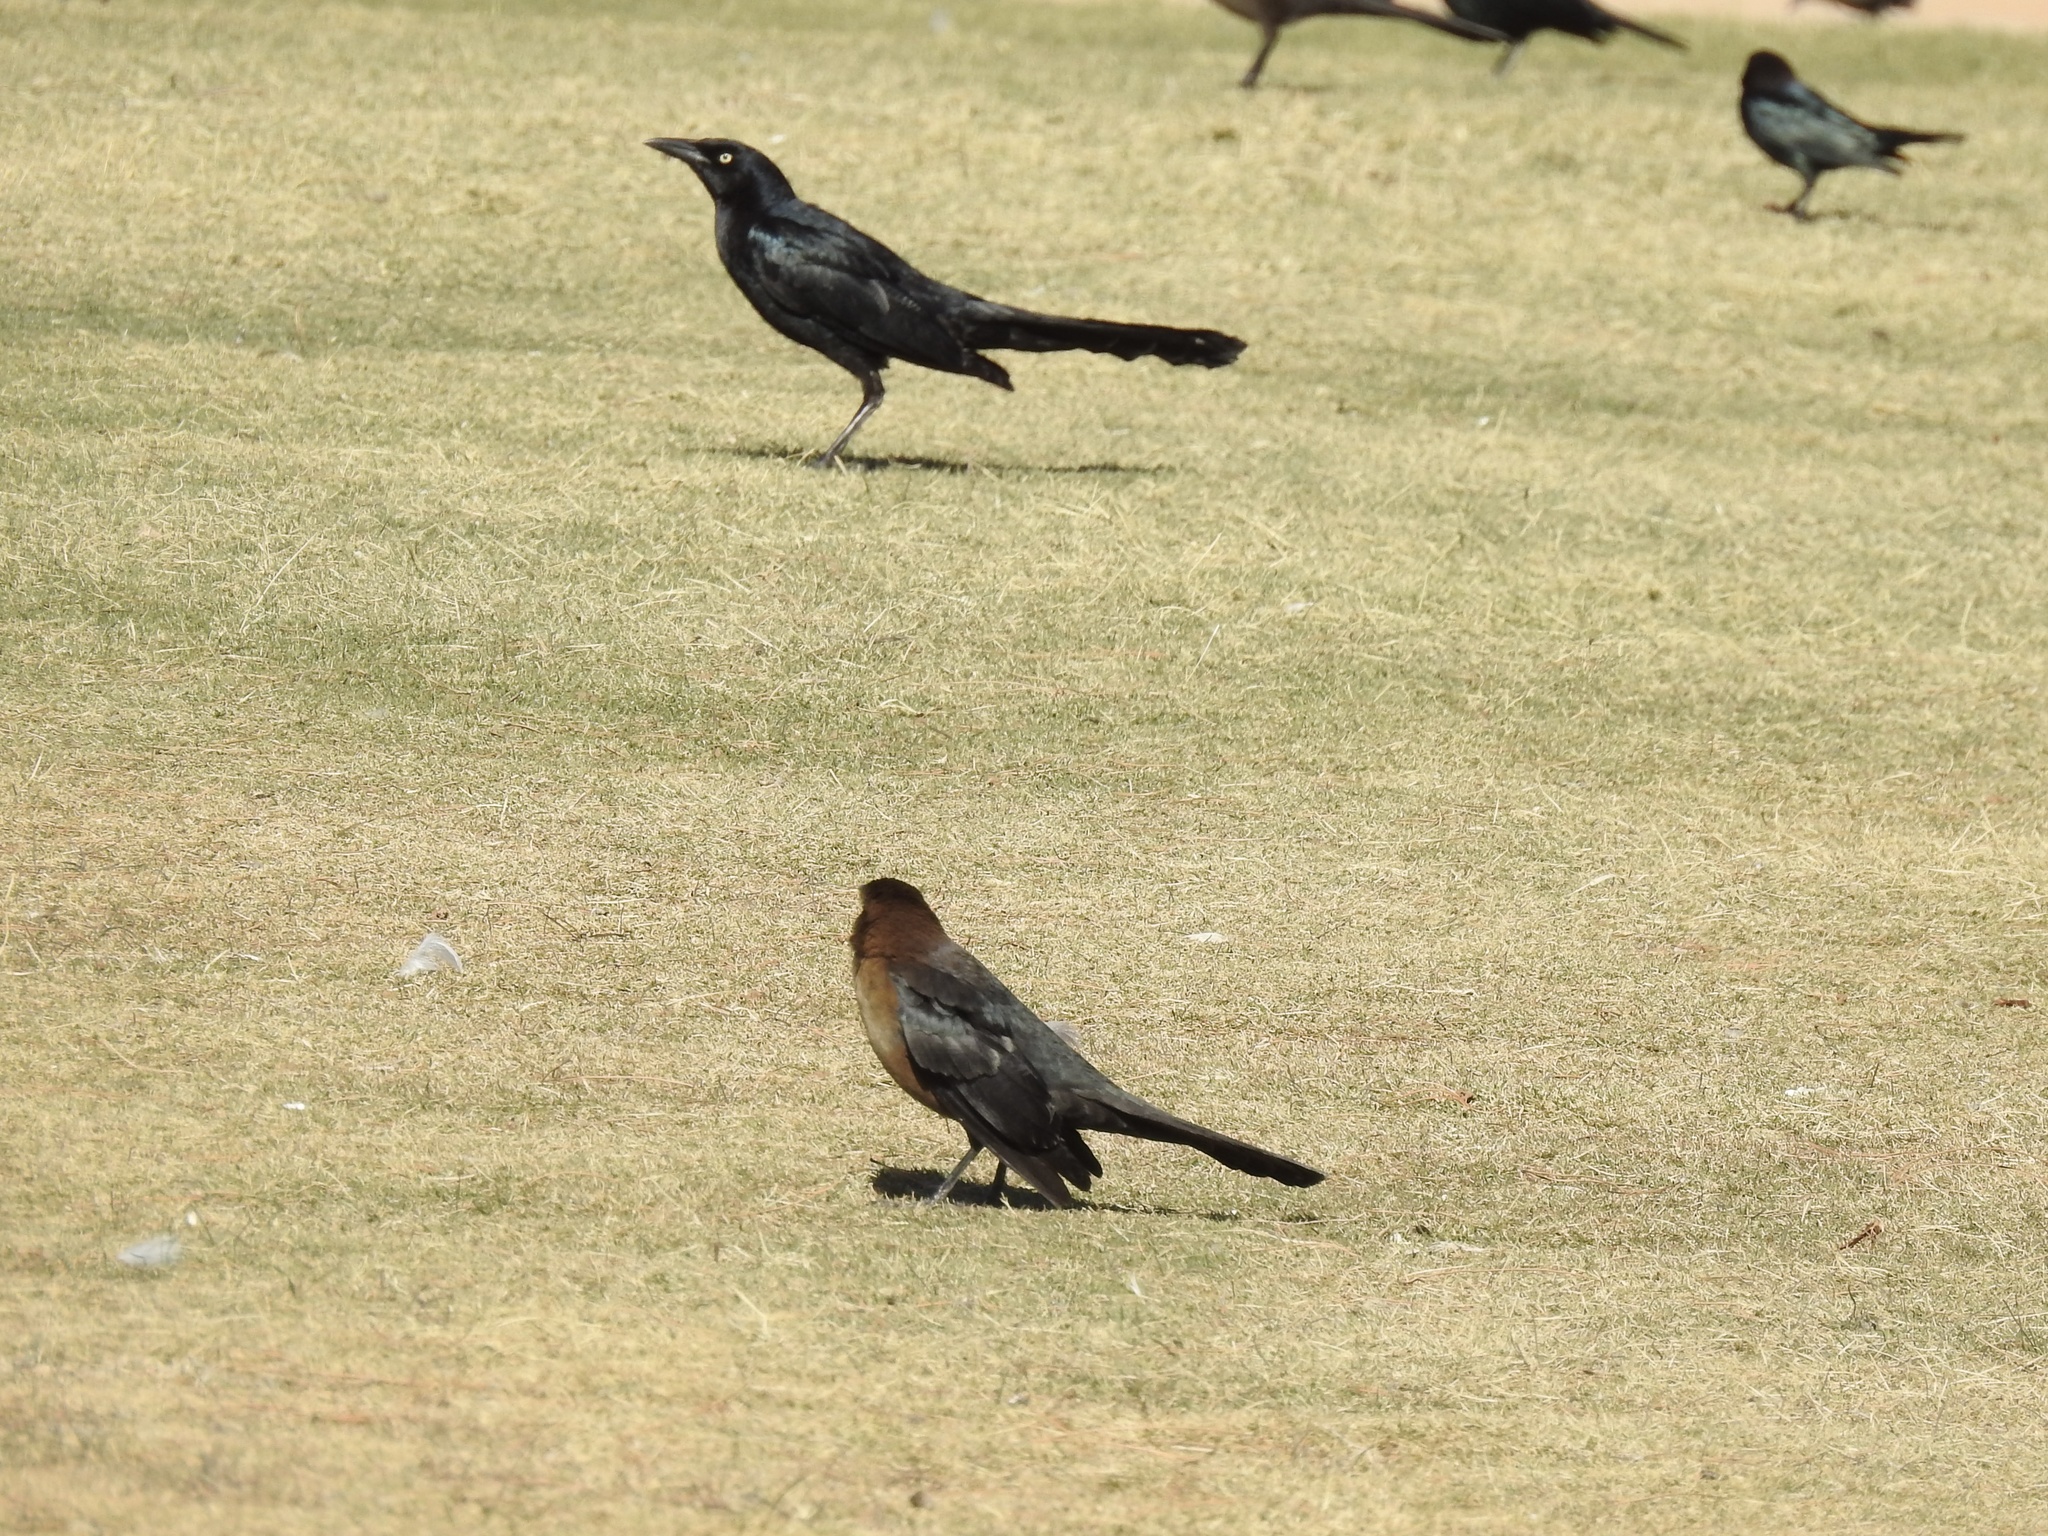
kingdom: Animalia
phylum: Chordata
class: Aves
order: Passeriformes
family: Icteridae
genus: Quiscalus
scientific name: Quiscalus mexicanus
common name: Great-tailed grackle
